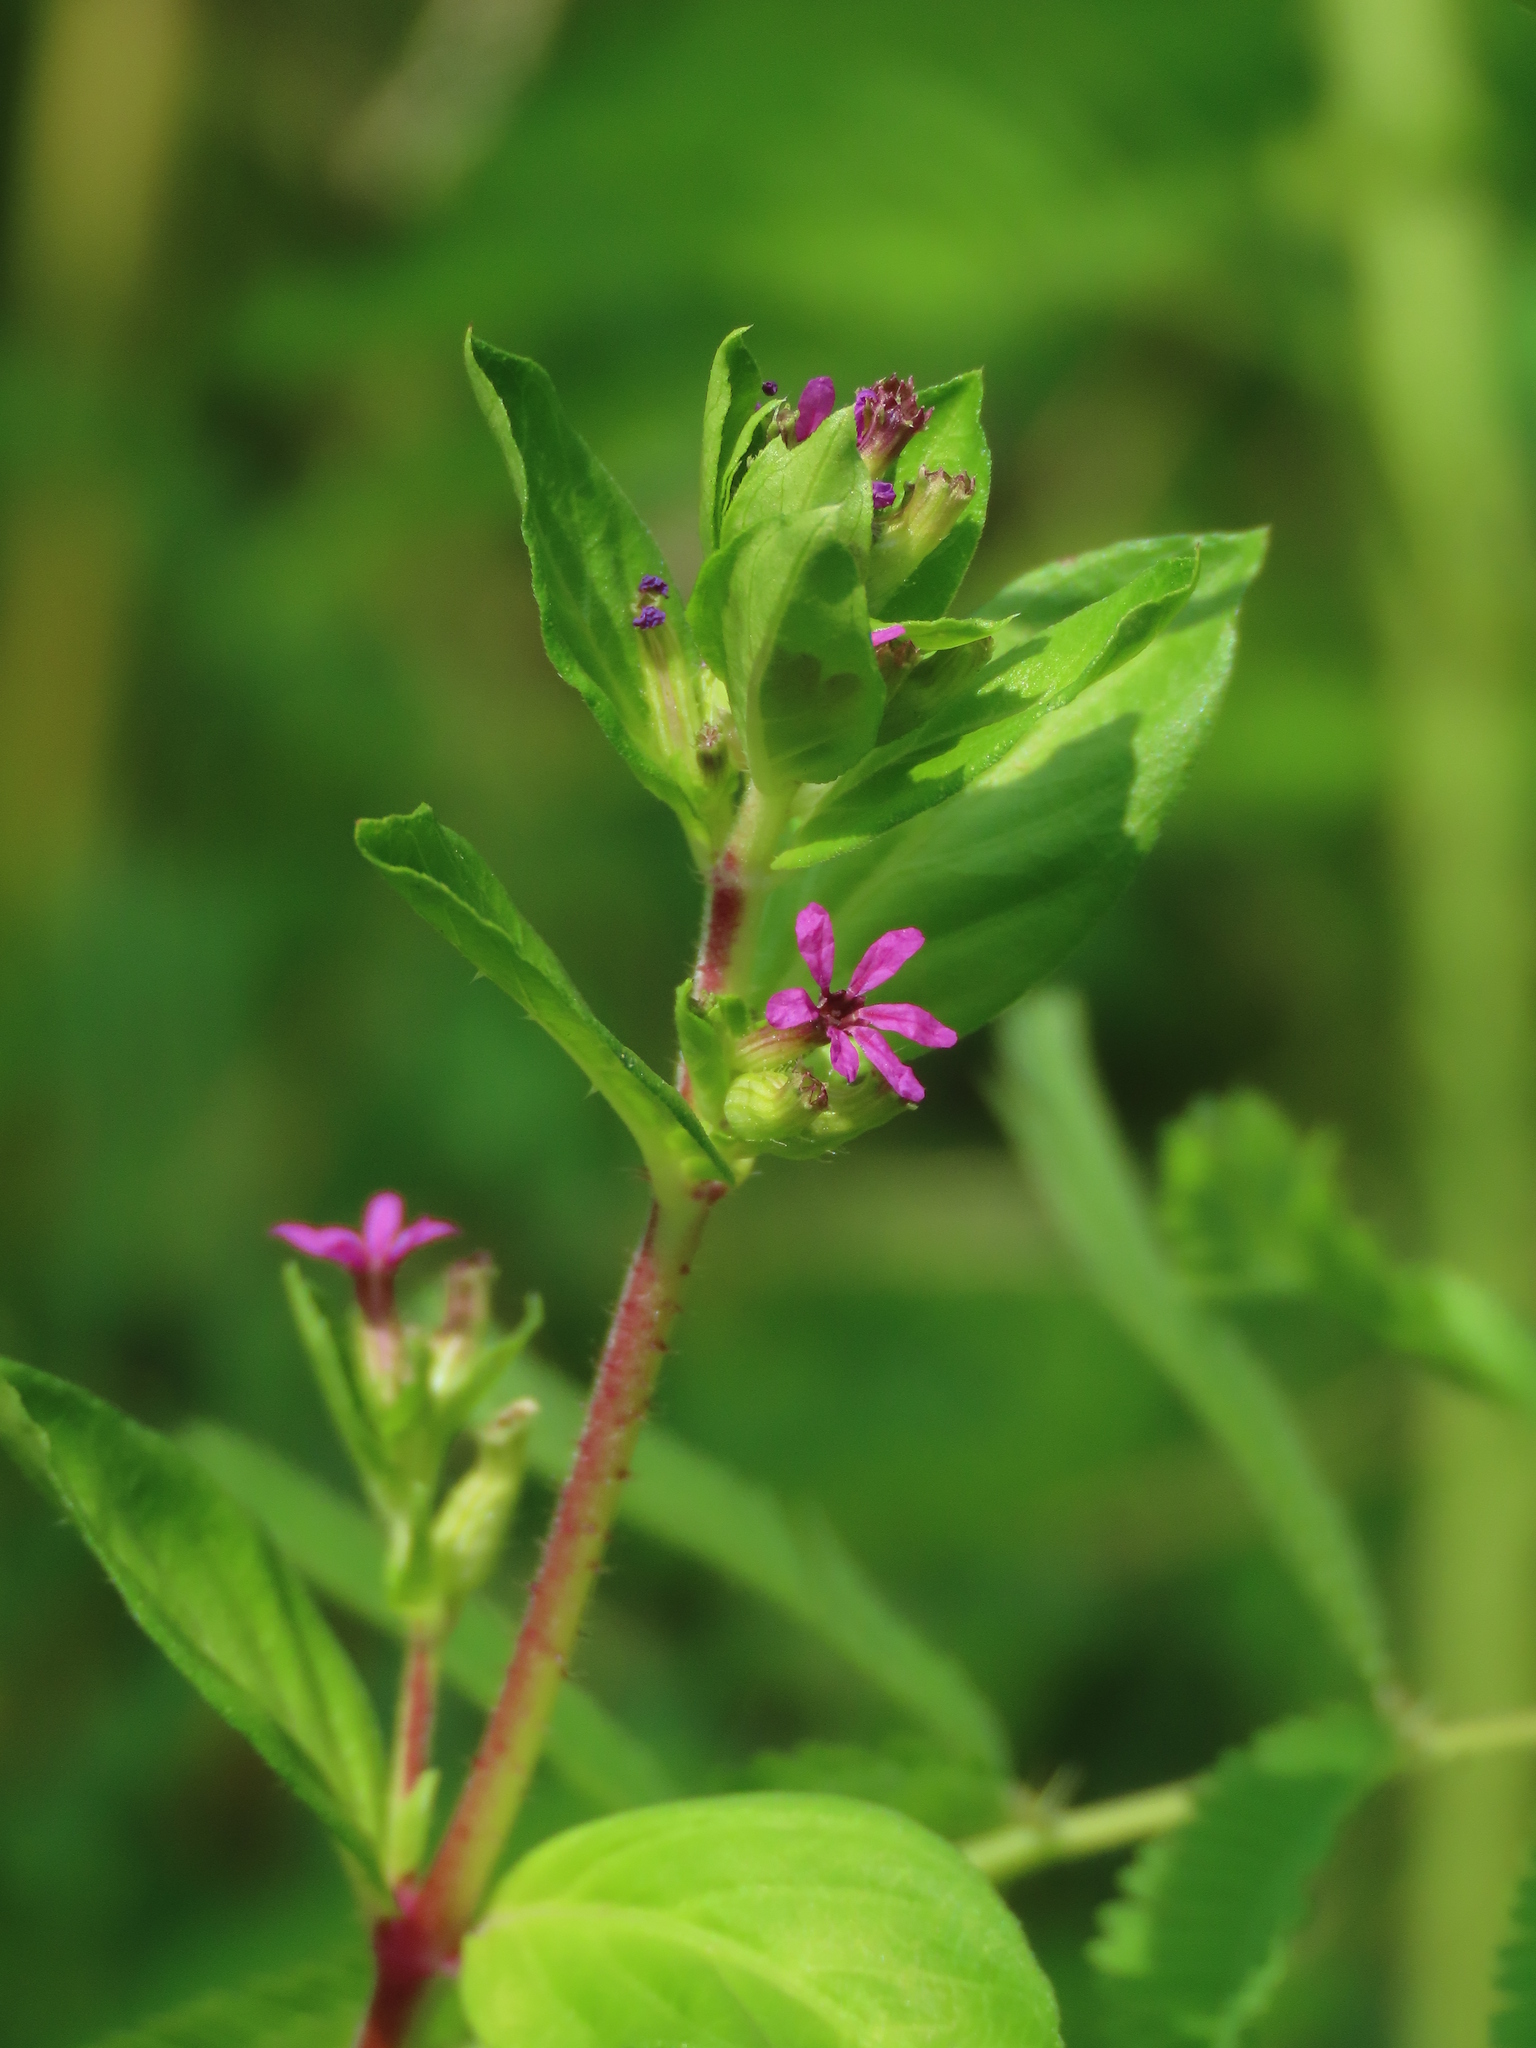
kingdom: Plantae
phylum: Tracheophyta
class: Magnoliopsida
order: Myrtales
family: Lythraceae
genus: Cuphea
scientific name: Cuphea carthagenensis
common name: Colombian waxweed
